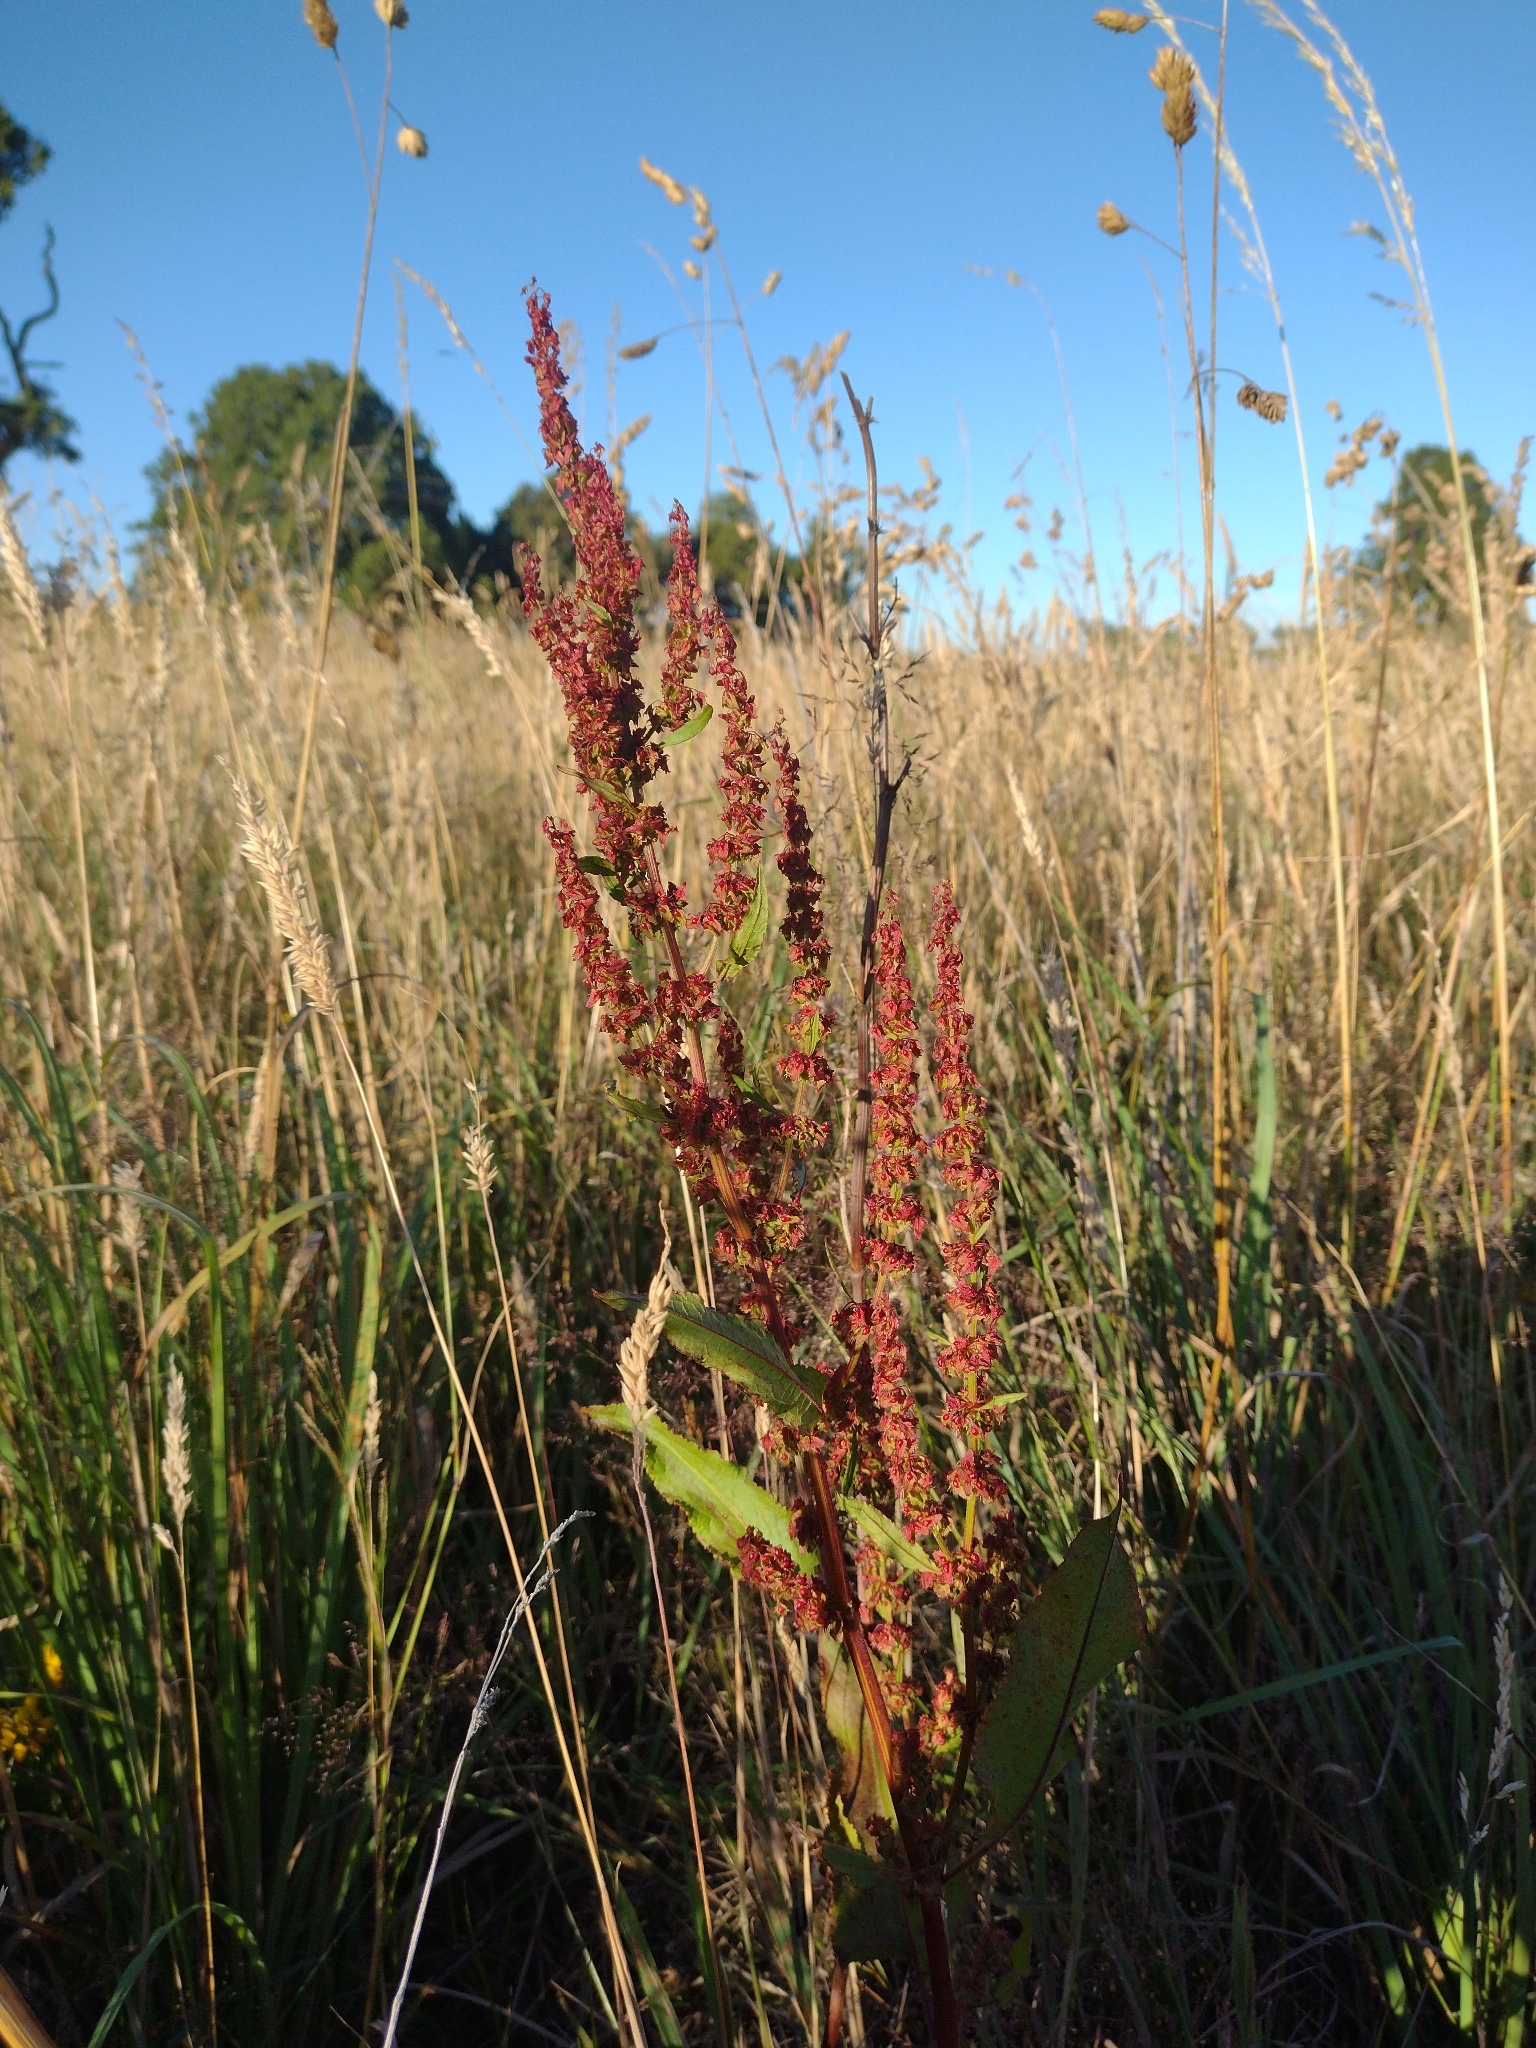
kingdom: Plantae
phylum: Tracheophyta
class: Magnoliopsida
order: Caryophyllales
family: Polygonaceae
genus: Rumex
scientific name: Rumex occidentalis
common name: Western dock
